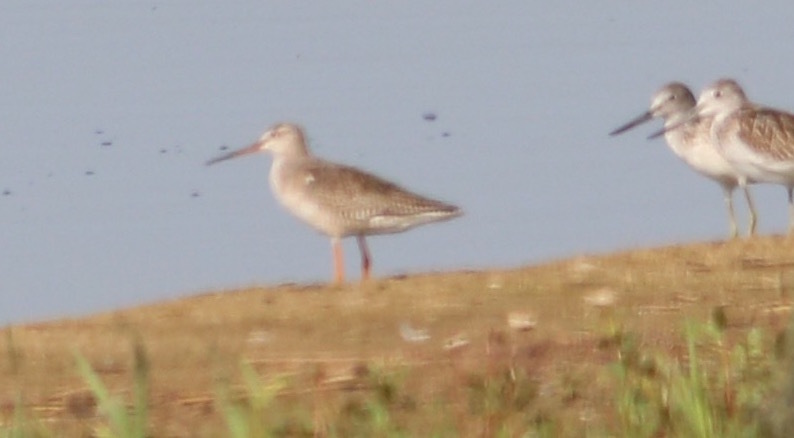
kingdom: Animalia
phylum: Chordata
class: Aves
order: Charadriiformes
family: Scolopacidae
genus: Tringa
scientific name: Tringa erythropus
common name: Spotted redshank
